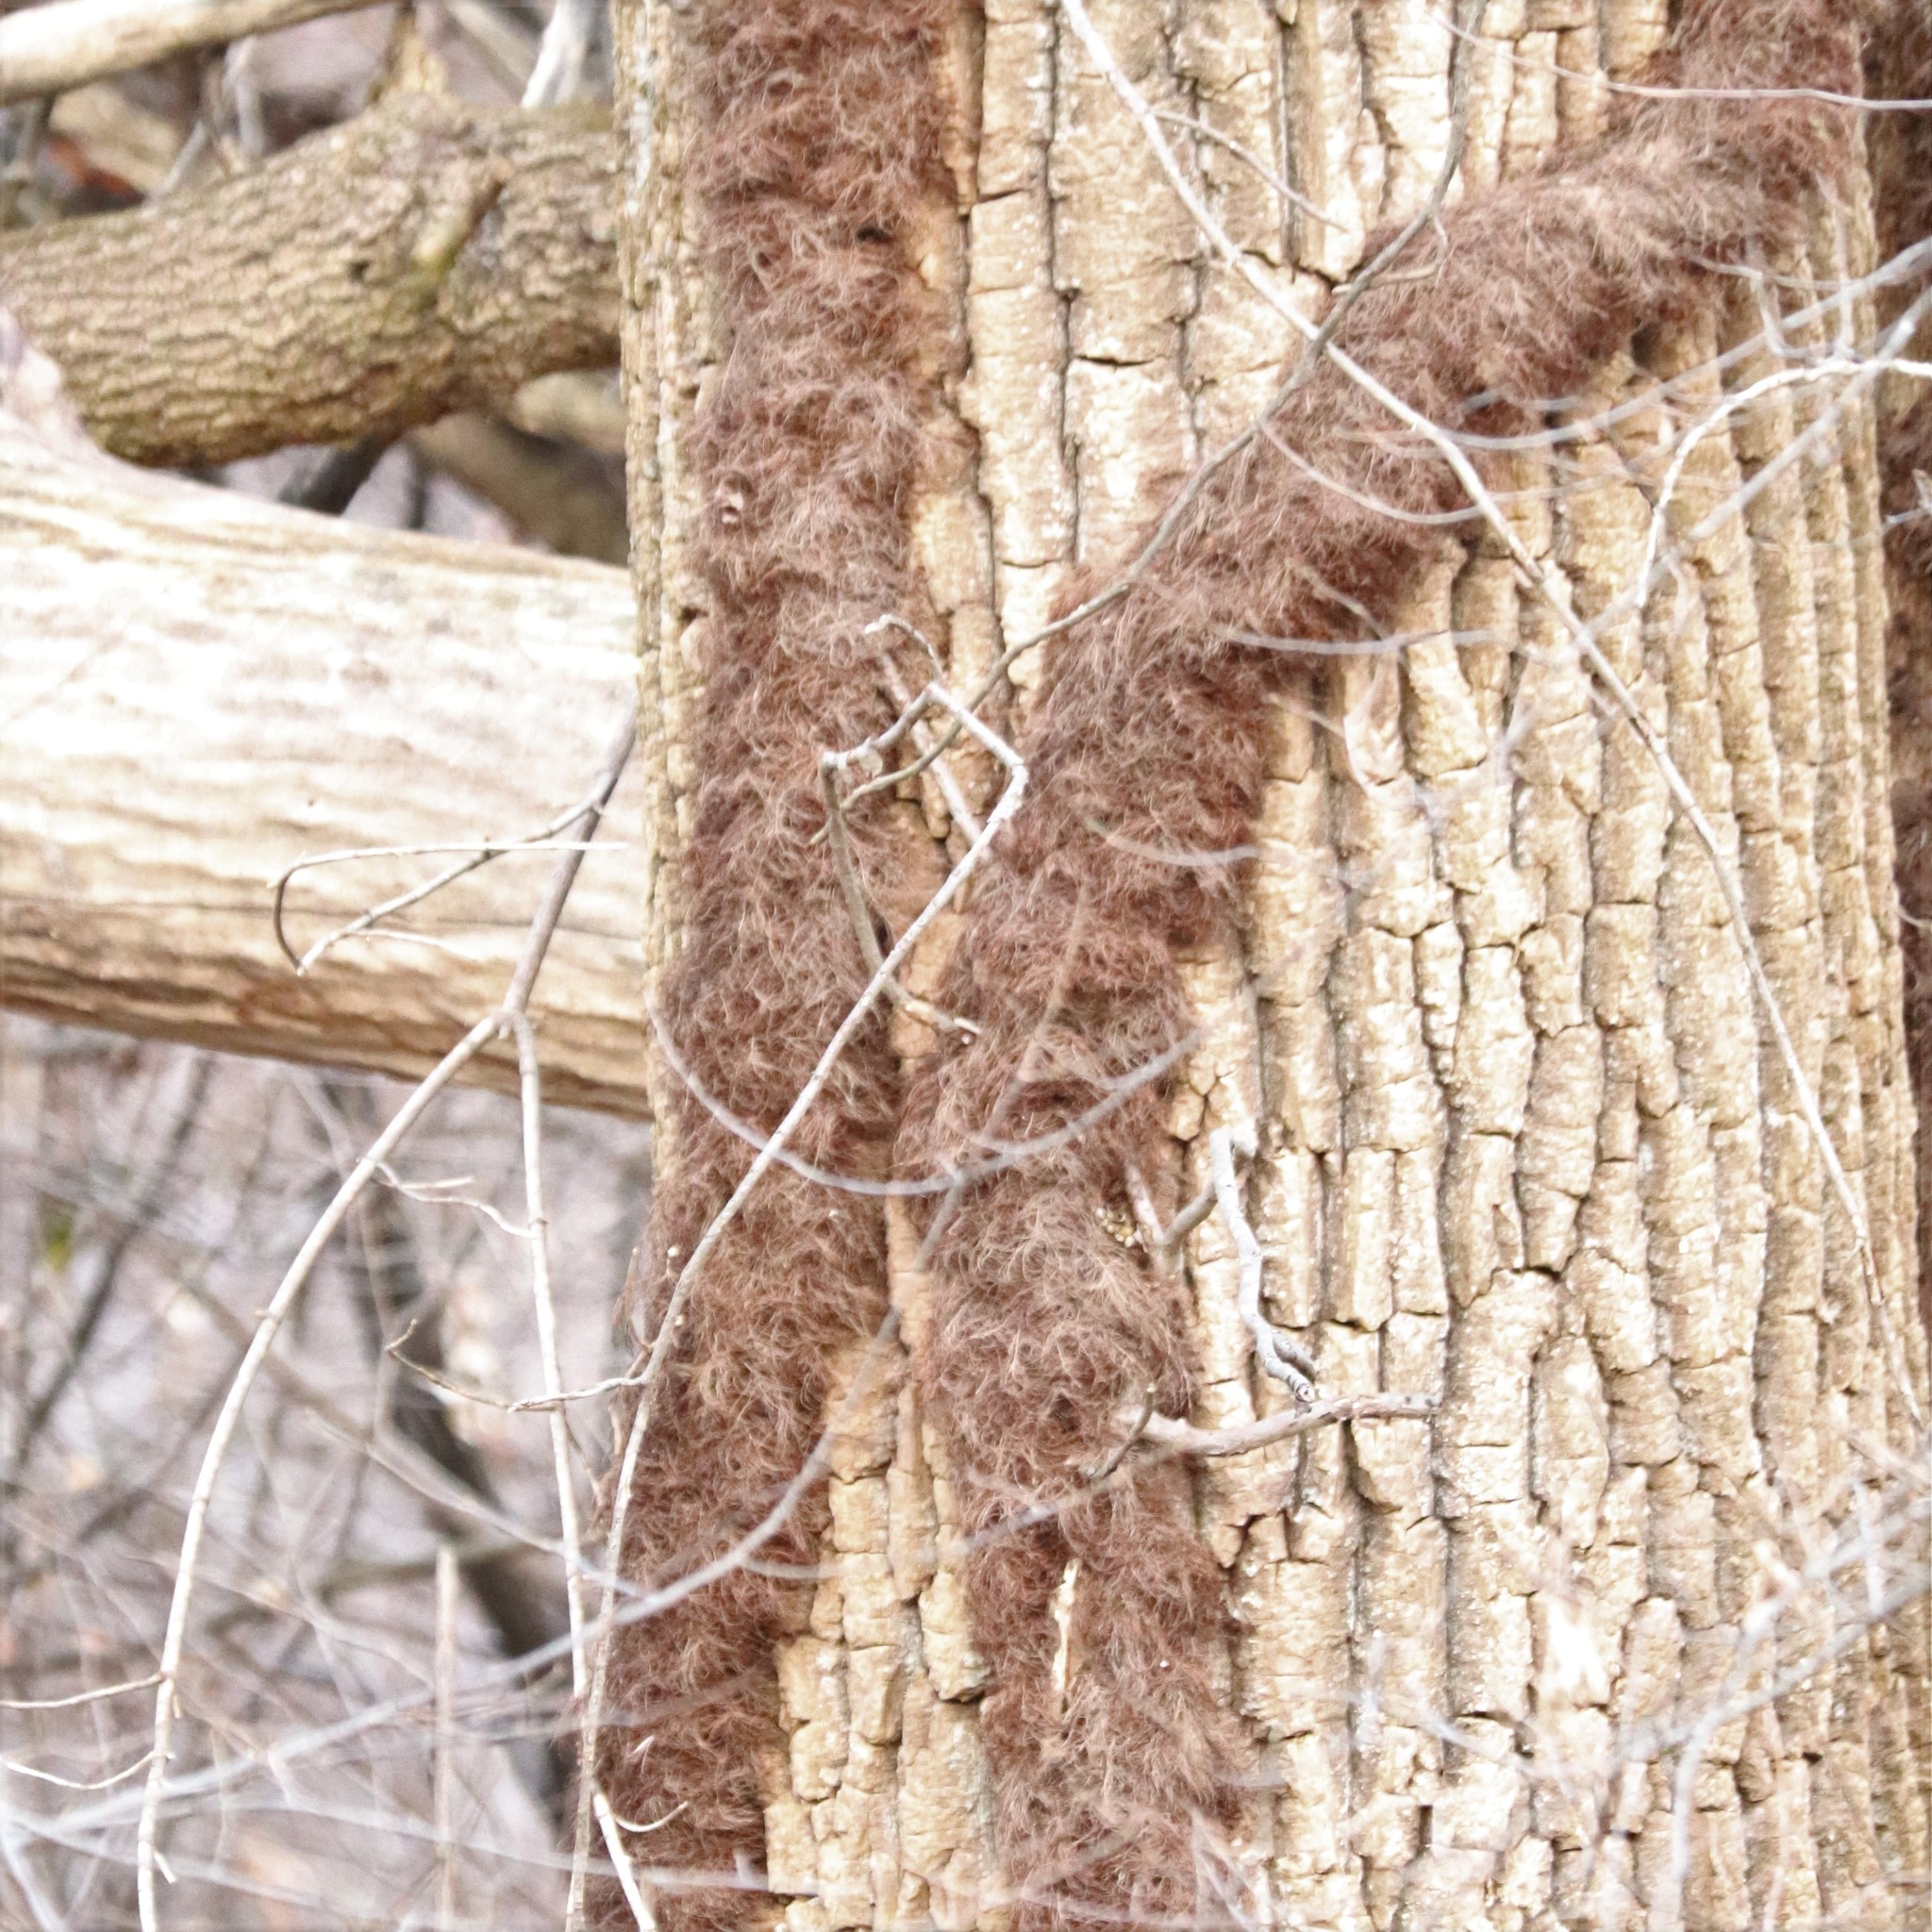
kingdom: Plantae
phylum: Tracheophyta
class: Magnoliopsida
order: Sapindales
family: Anacardiaceae
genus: Toxicodendron
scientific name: Toxicodendron radicans
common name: Poison ivy
